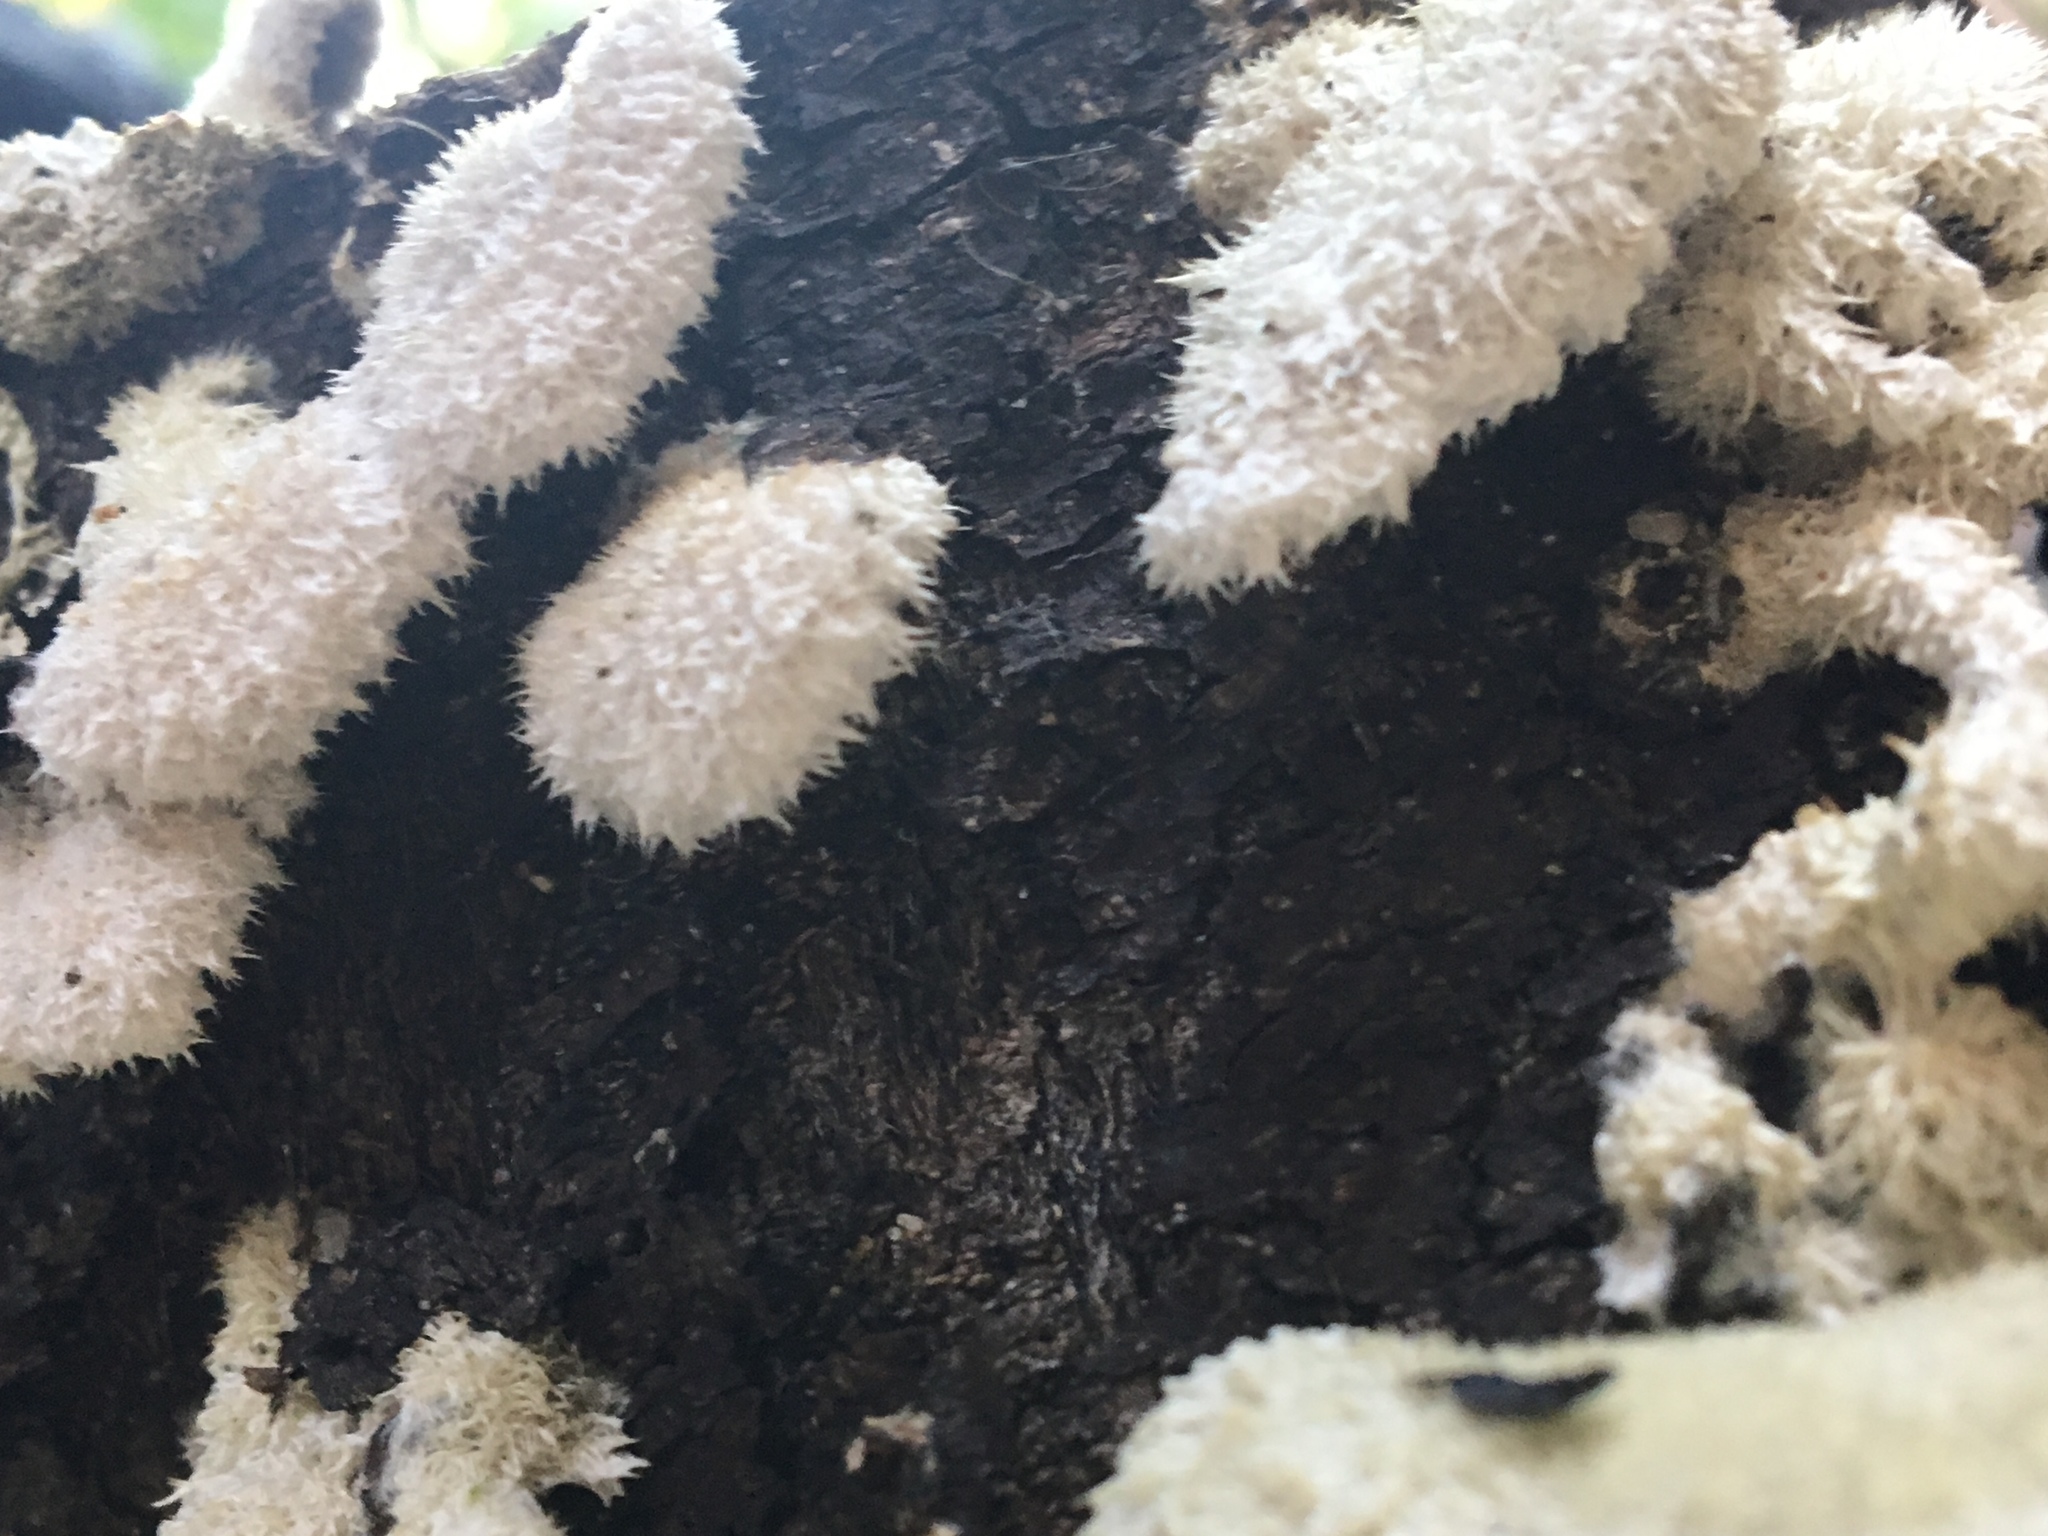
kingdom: Fungi
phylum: Basidiomycota
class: Agaricomycetes
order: Agaricales
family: Schizophyllaceae
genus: Schizophyllum
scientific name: Schizophyllum commune
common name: Common porecrust
